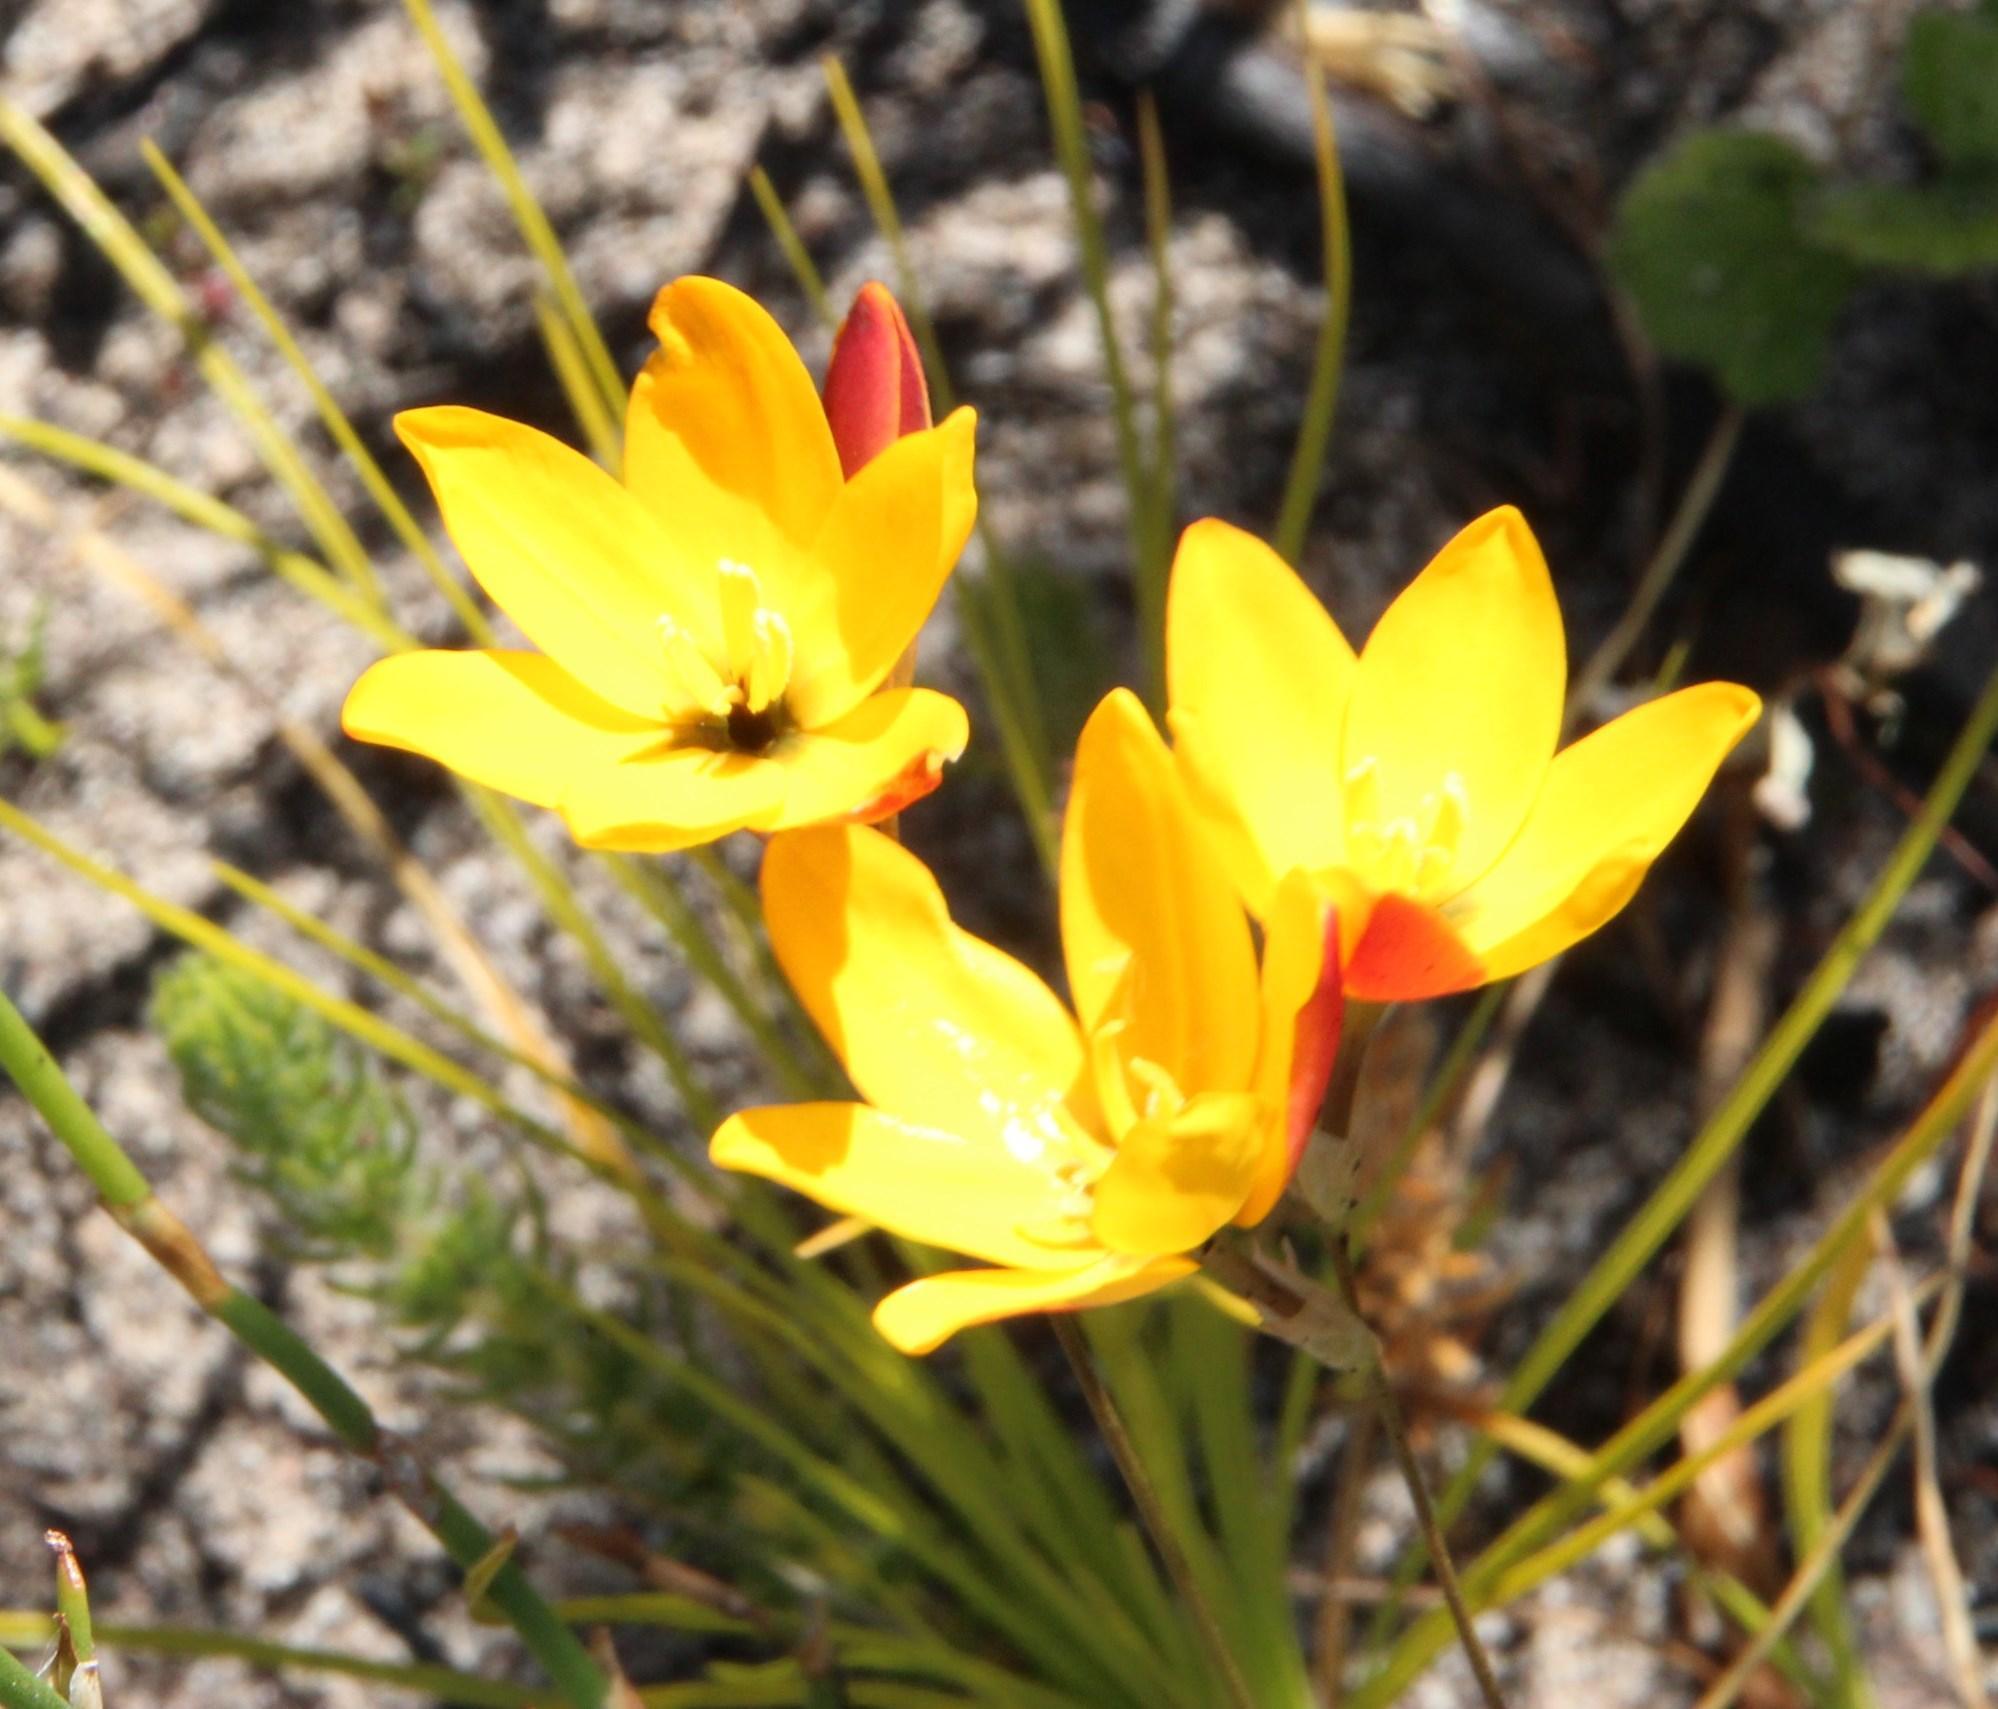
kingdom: Plantae
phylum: Tracheophyta
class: Liliopsida
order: Asparagales
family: Iridaceae
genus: Ixia
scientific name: Ixia dubia
